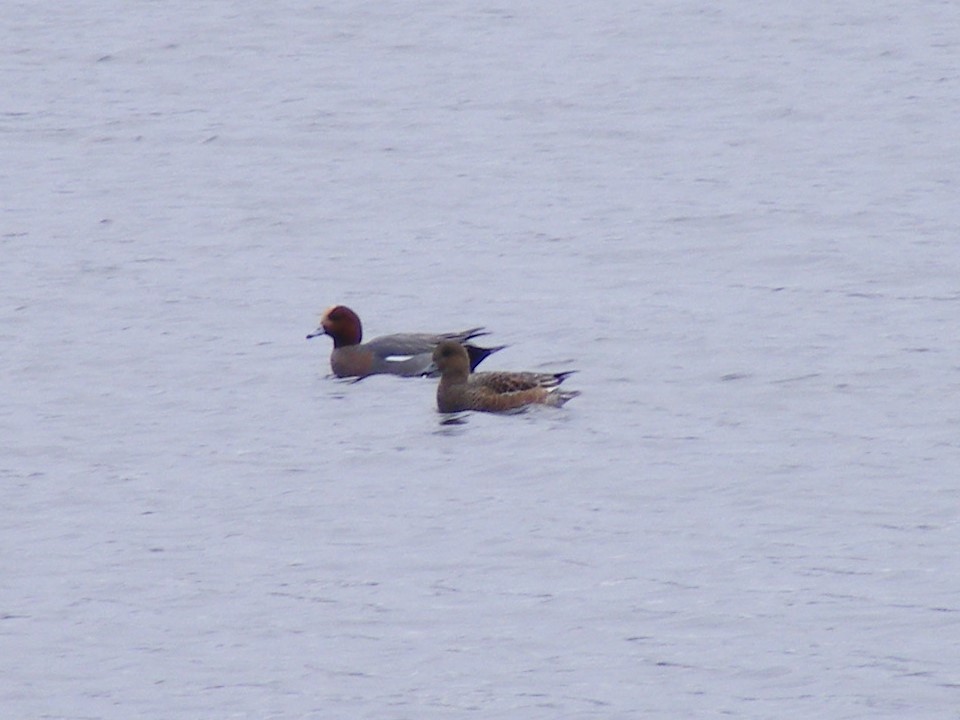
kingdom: Animalia
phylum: Chordata
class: Aves
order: Anseriformes
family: Anatidae
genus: Mareca
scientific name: Mareca penelope
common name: Eurasian wigeon
